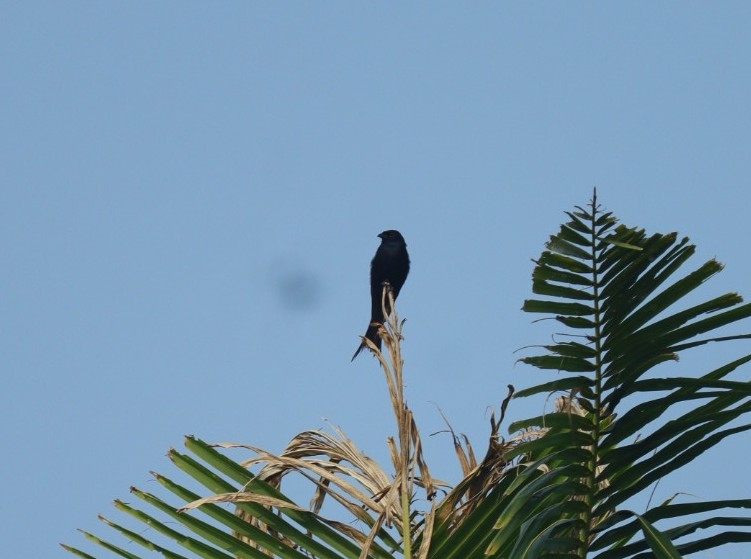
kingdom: Animalia
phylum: Chordata
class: Aves
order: Passeriformes
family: Dicruridae
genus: Dicrurus
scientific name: Dicrurus macrocercus
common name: Black drongo
